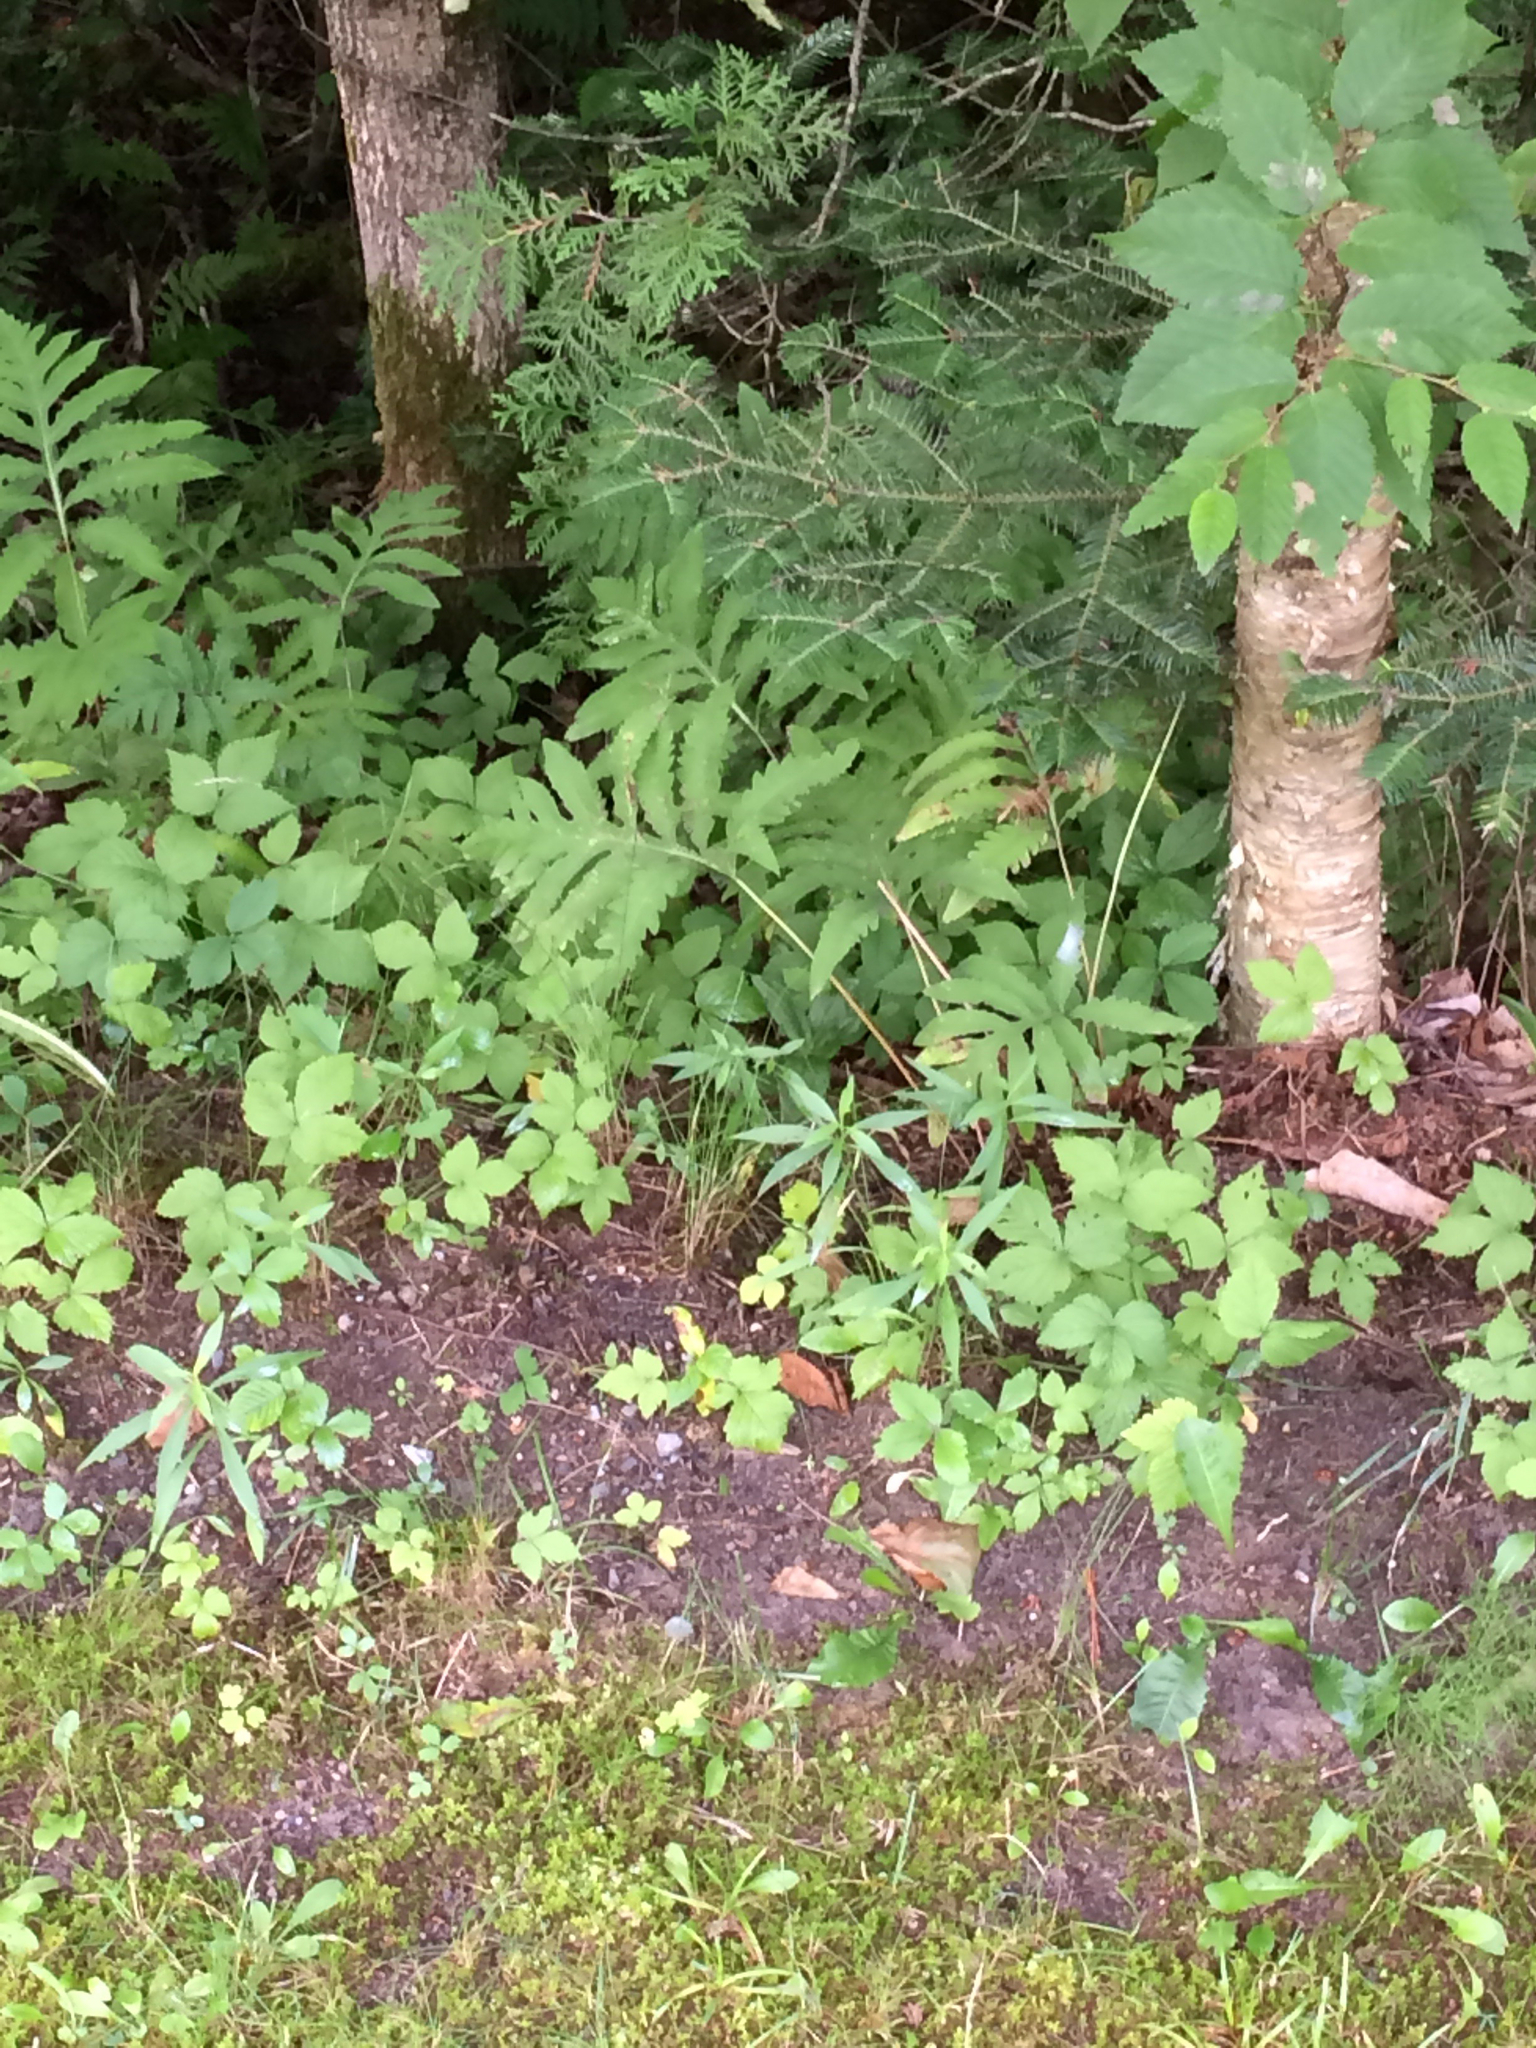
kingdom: Plantae
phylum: Tracheophyta
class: Polypodiopsida
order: Polypodiales
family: Onocleaceae
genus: Onoclea
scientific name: Onoclea sensibilis
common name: Sensitive fern
